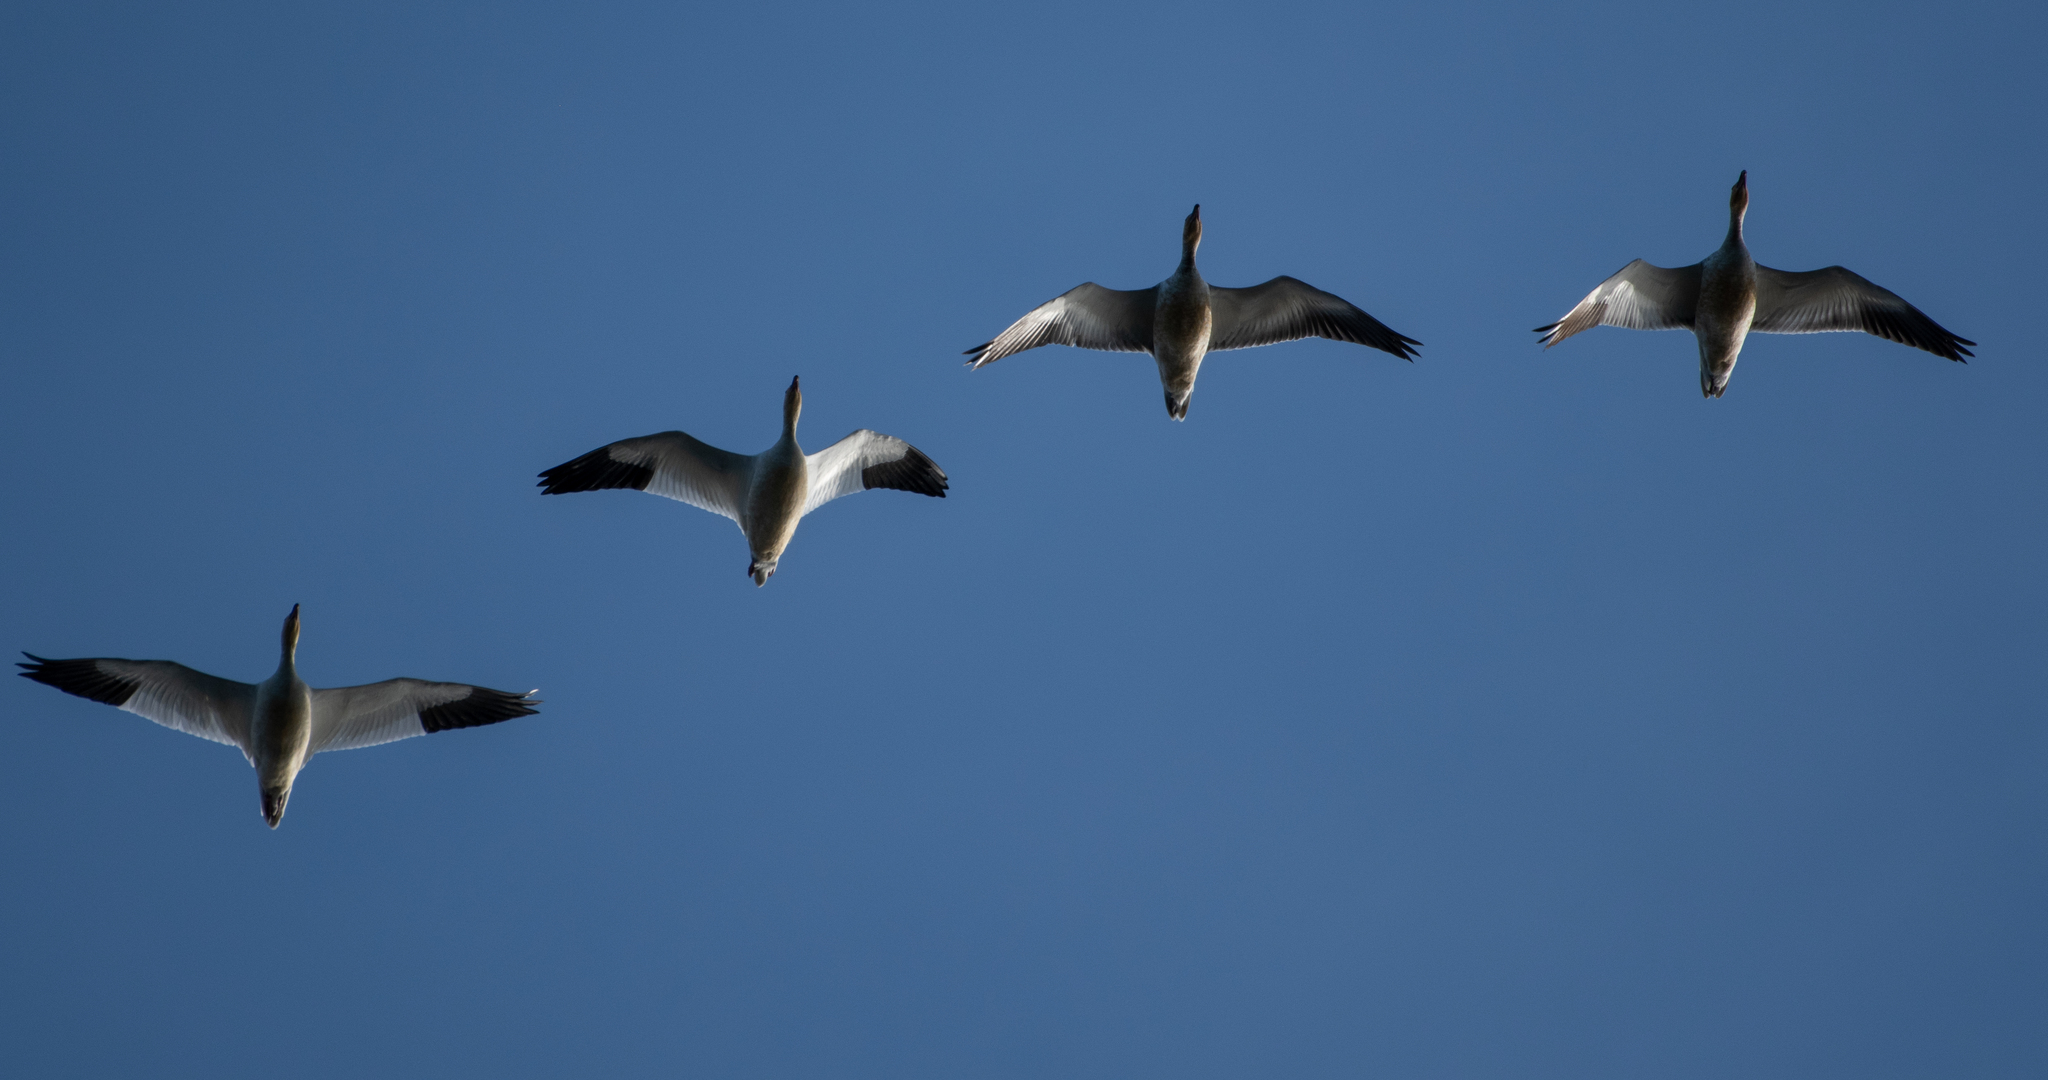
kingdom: Animalia
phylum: Chordata
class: Aves
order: Anseriformes
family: Anatidae
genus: Anser
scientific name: Anser caerulescens
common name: Snow goose
